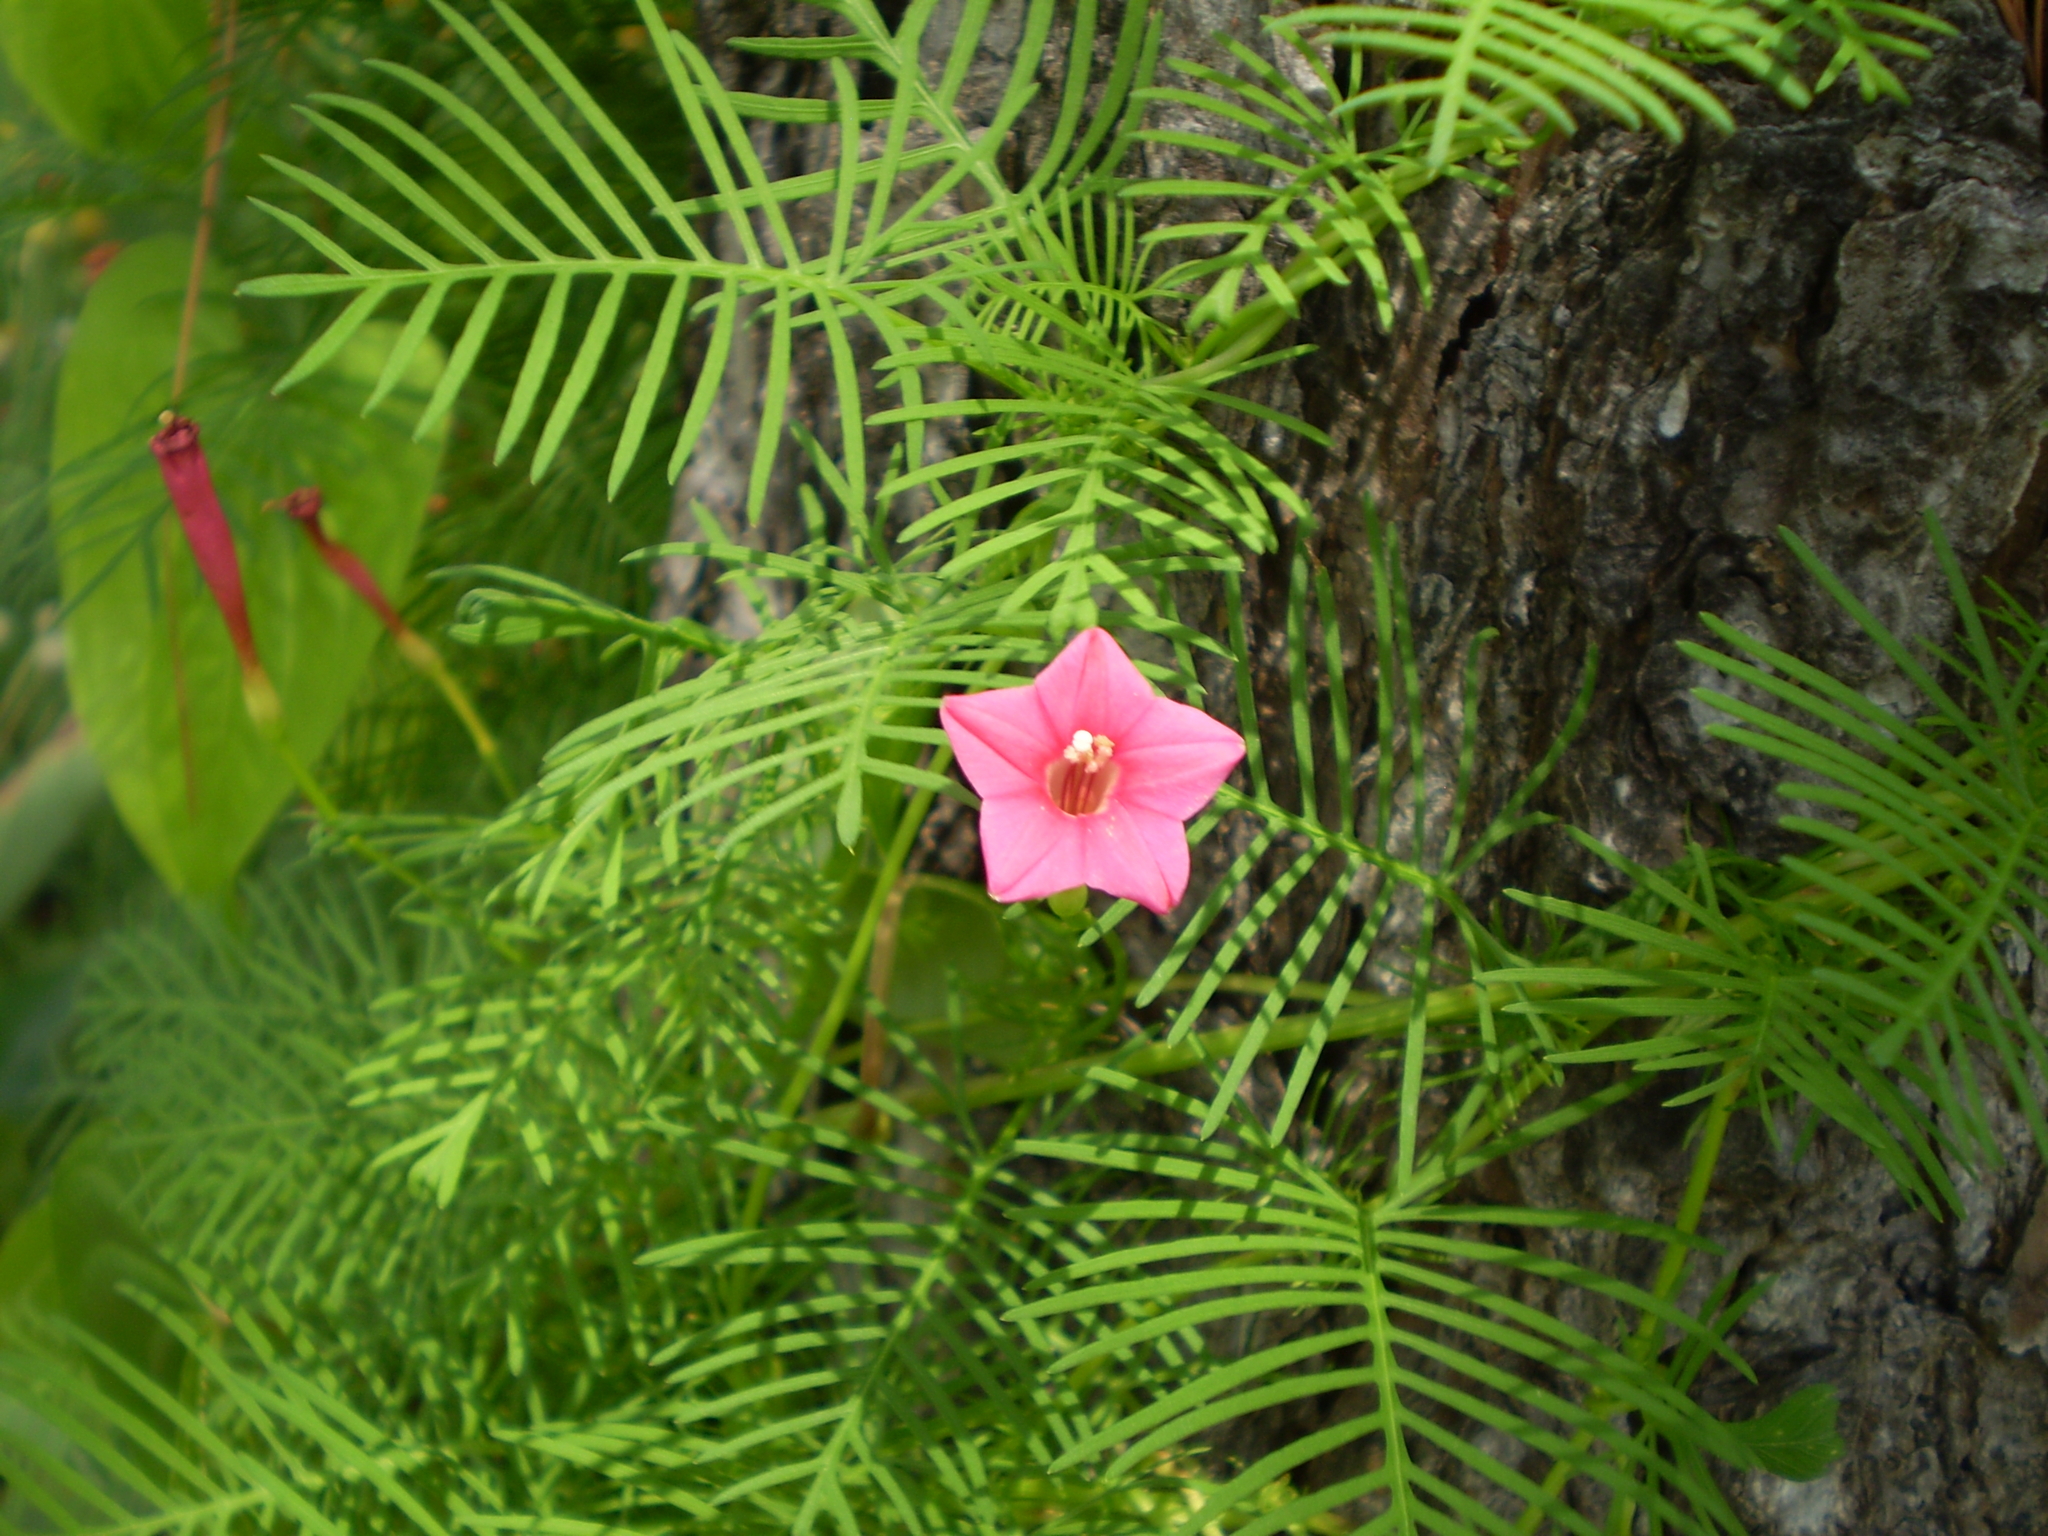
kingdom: Plantae
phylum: Tracheophyta
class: Magnoliopsida
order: Solanales
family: Convolvulaceae
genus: Ipomoea
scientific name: Ipomoea quamoclit
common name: Cypress vine
